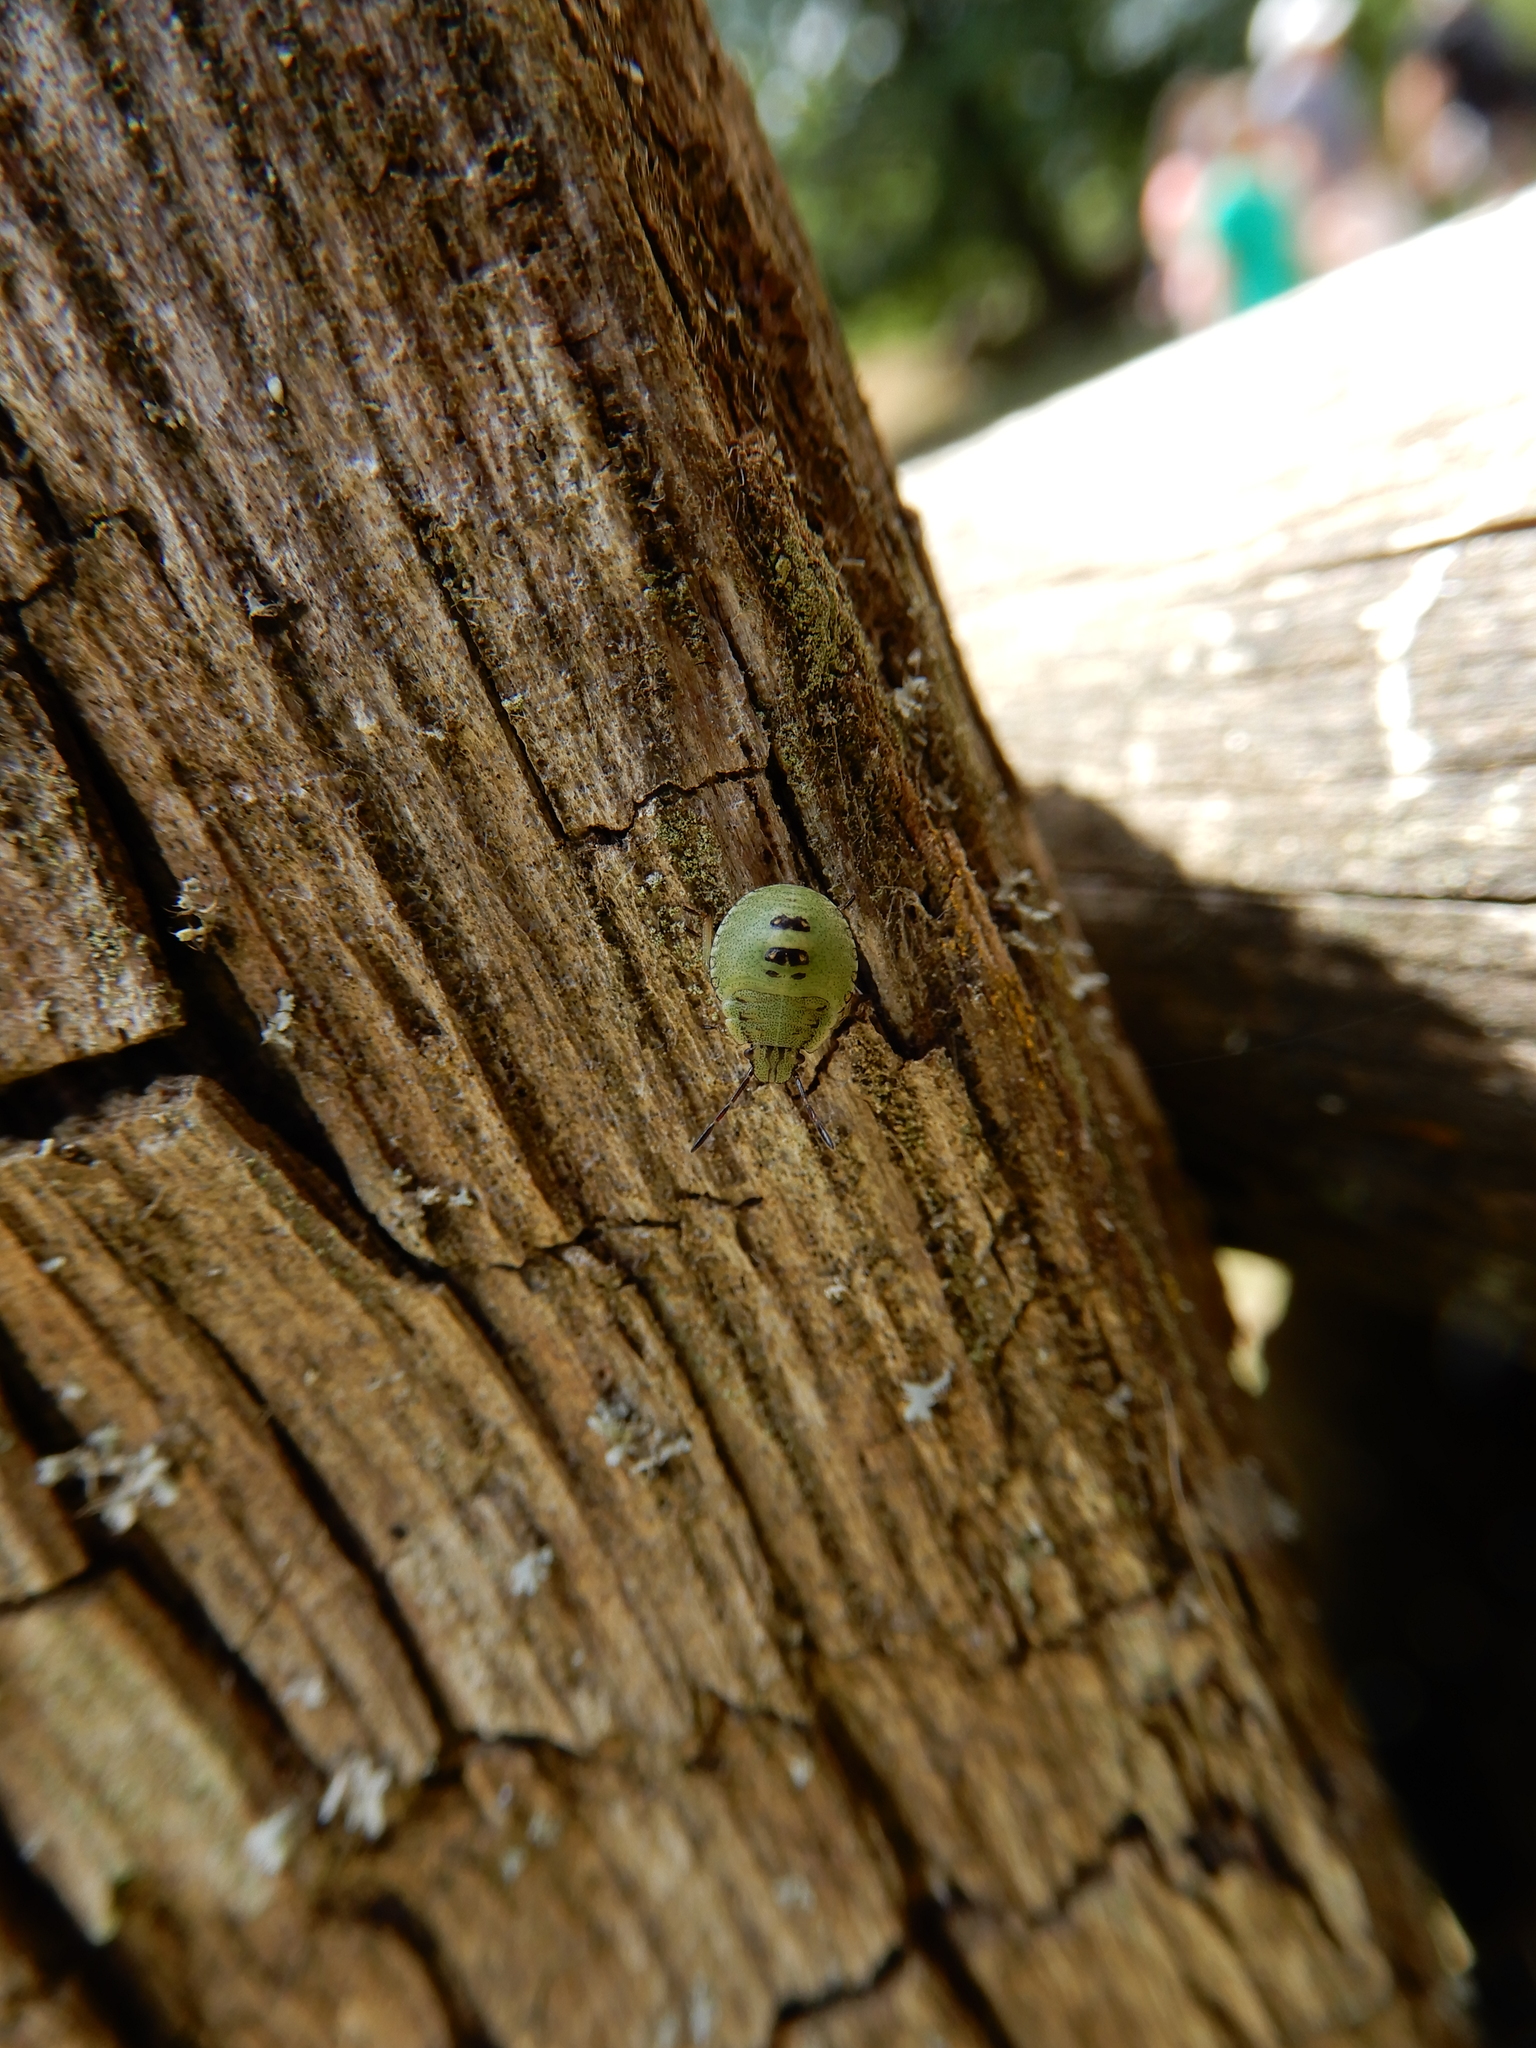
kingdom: Animalia
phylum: Arthropoda
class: Insecta
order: Hemiptera
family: Pentatomidae
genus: Palomena
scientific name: Palomena prasina
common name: Green shieldbug
